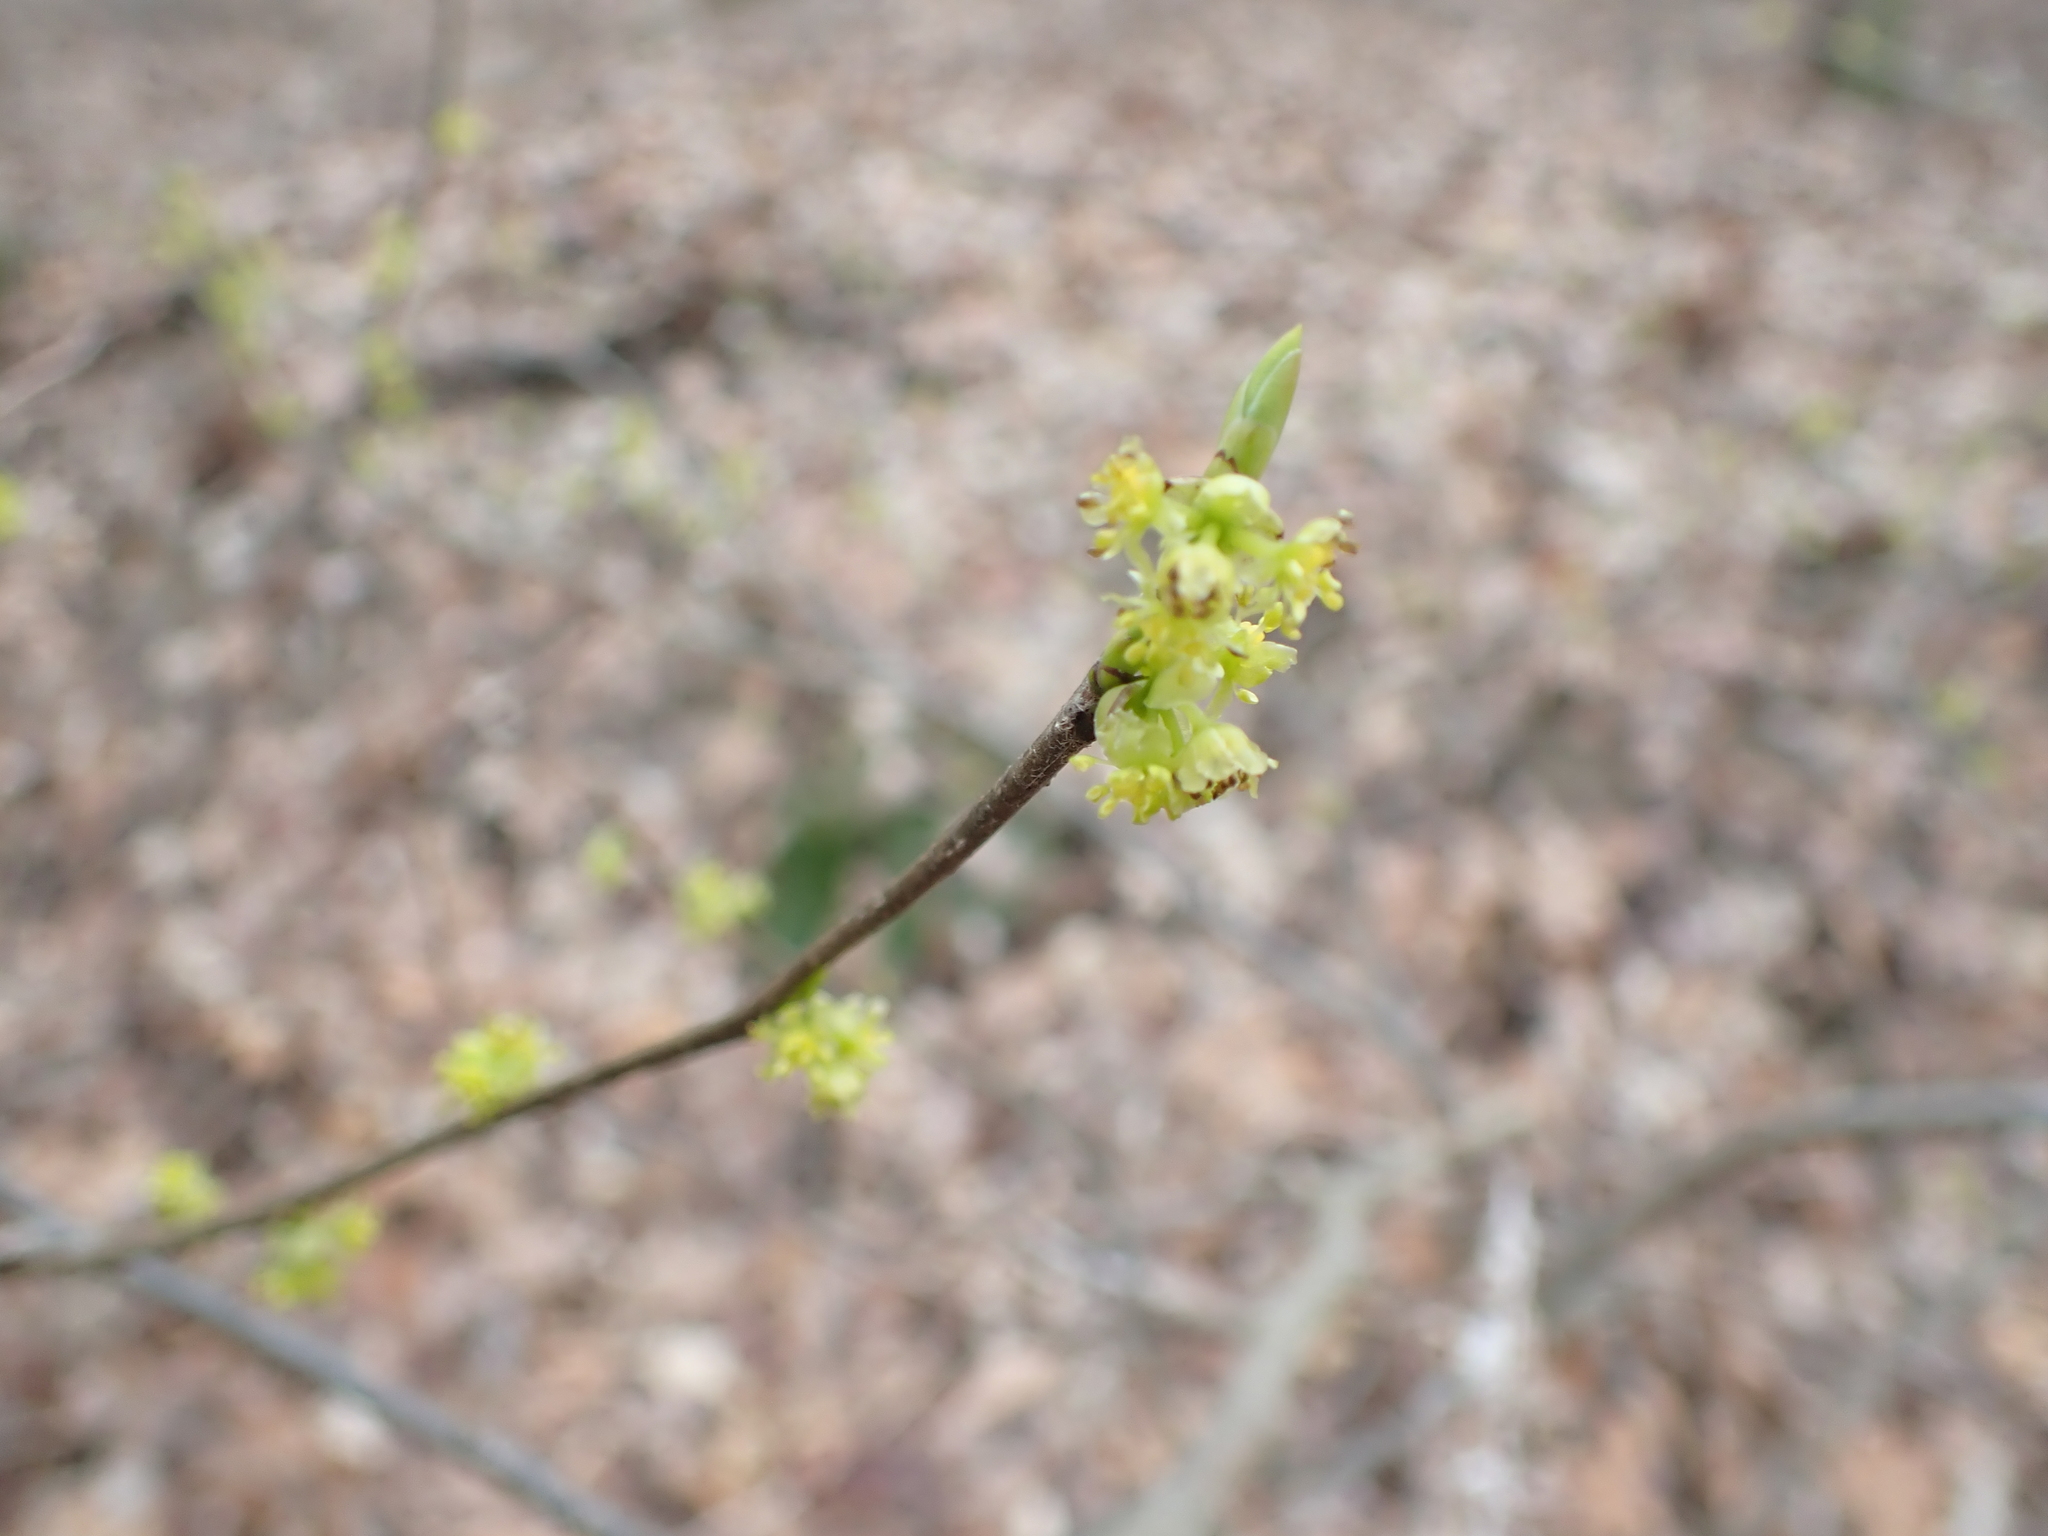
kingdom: Plantae
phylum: Tracheophyta
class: Magnoliopsida
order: Laurales
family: Lauraceae
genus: Lindera
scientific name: Lindera benzoin
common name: Spicebush
